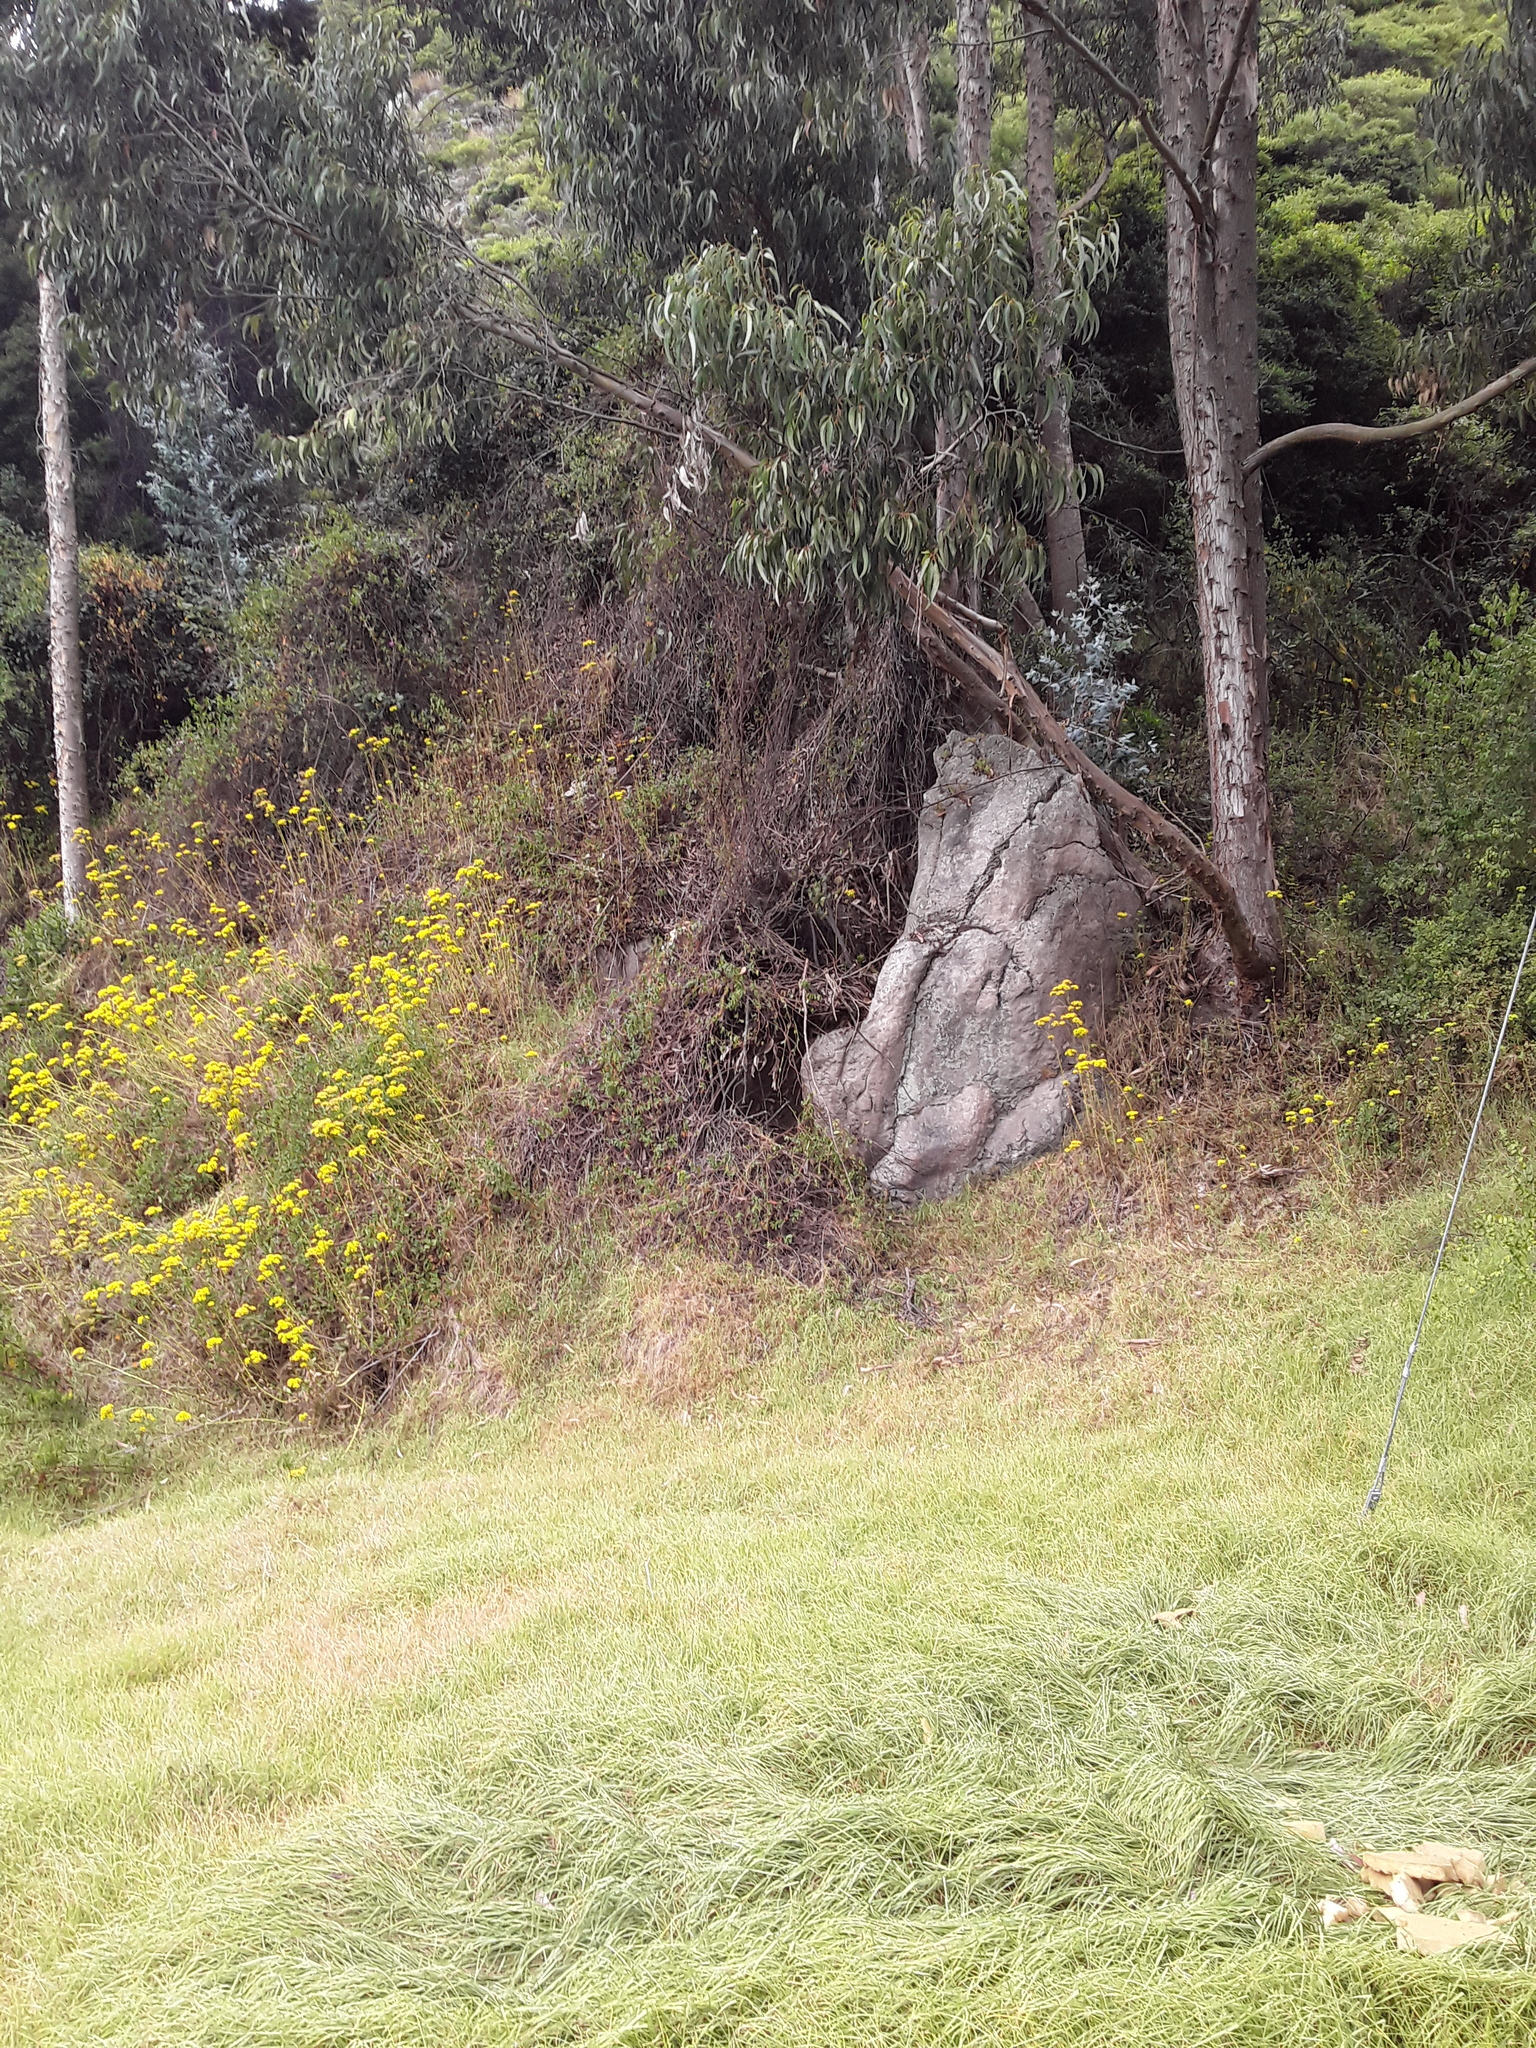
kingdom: Plantae
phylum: Tracheophyta
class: Magnoliopsida
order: Myrtales
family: Myrtaceae
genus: Eucalyptus
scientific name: Eucalyptus globulus
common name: Southern blue-gum
